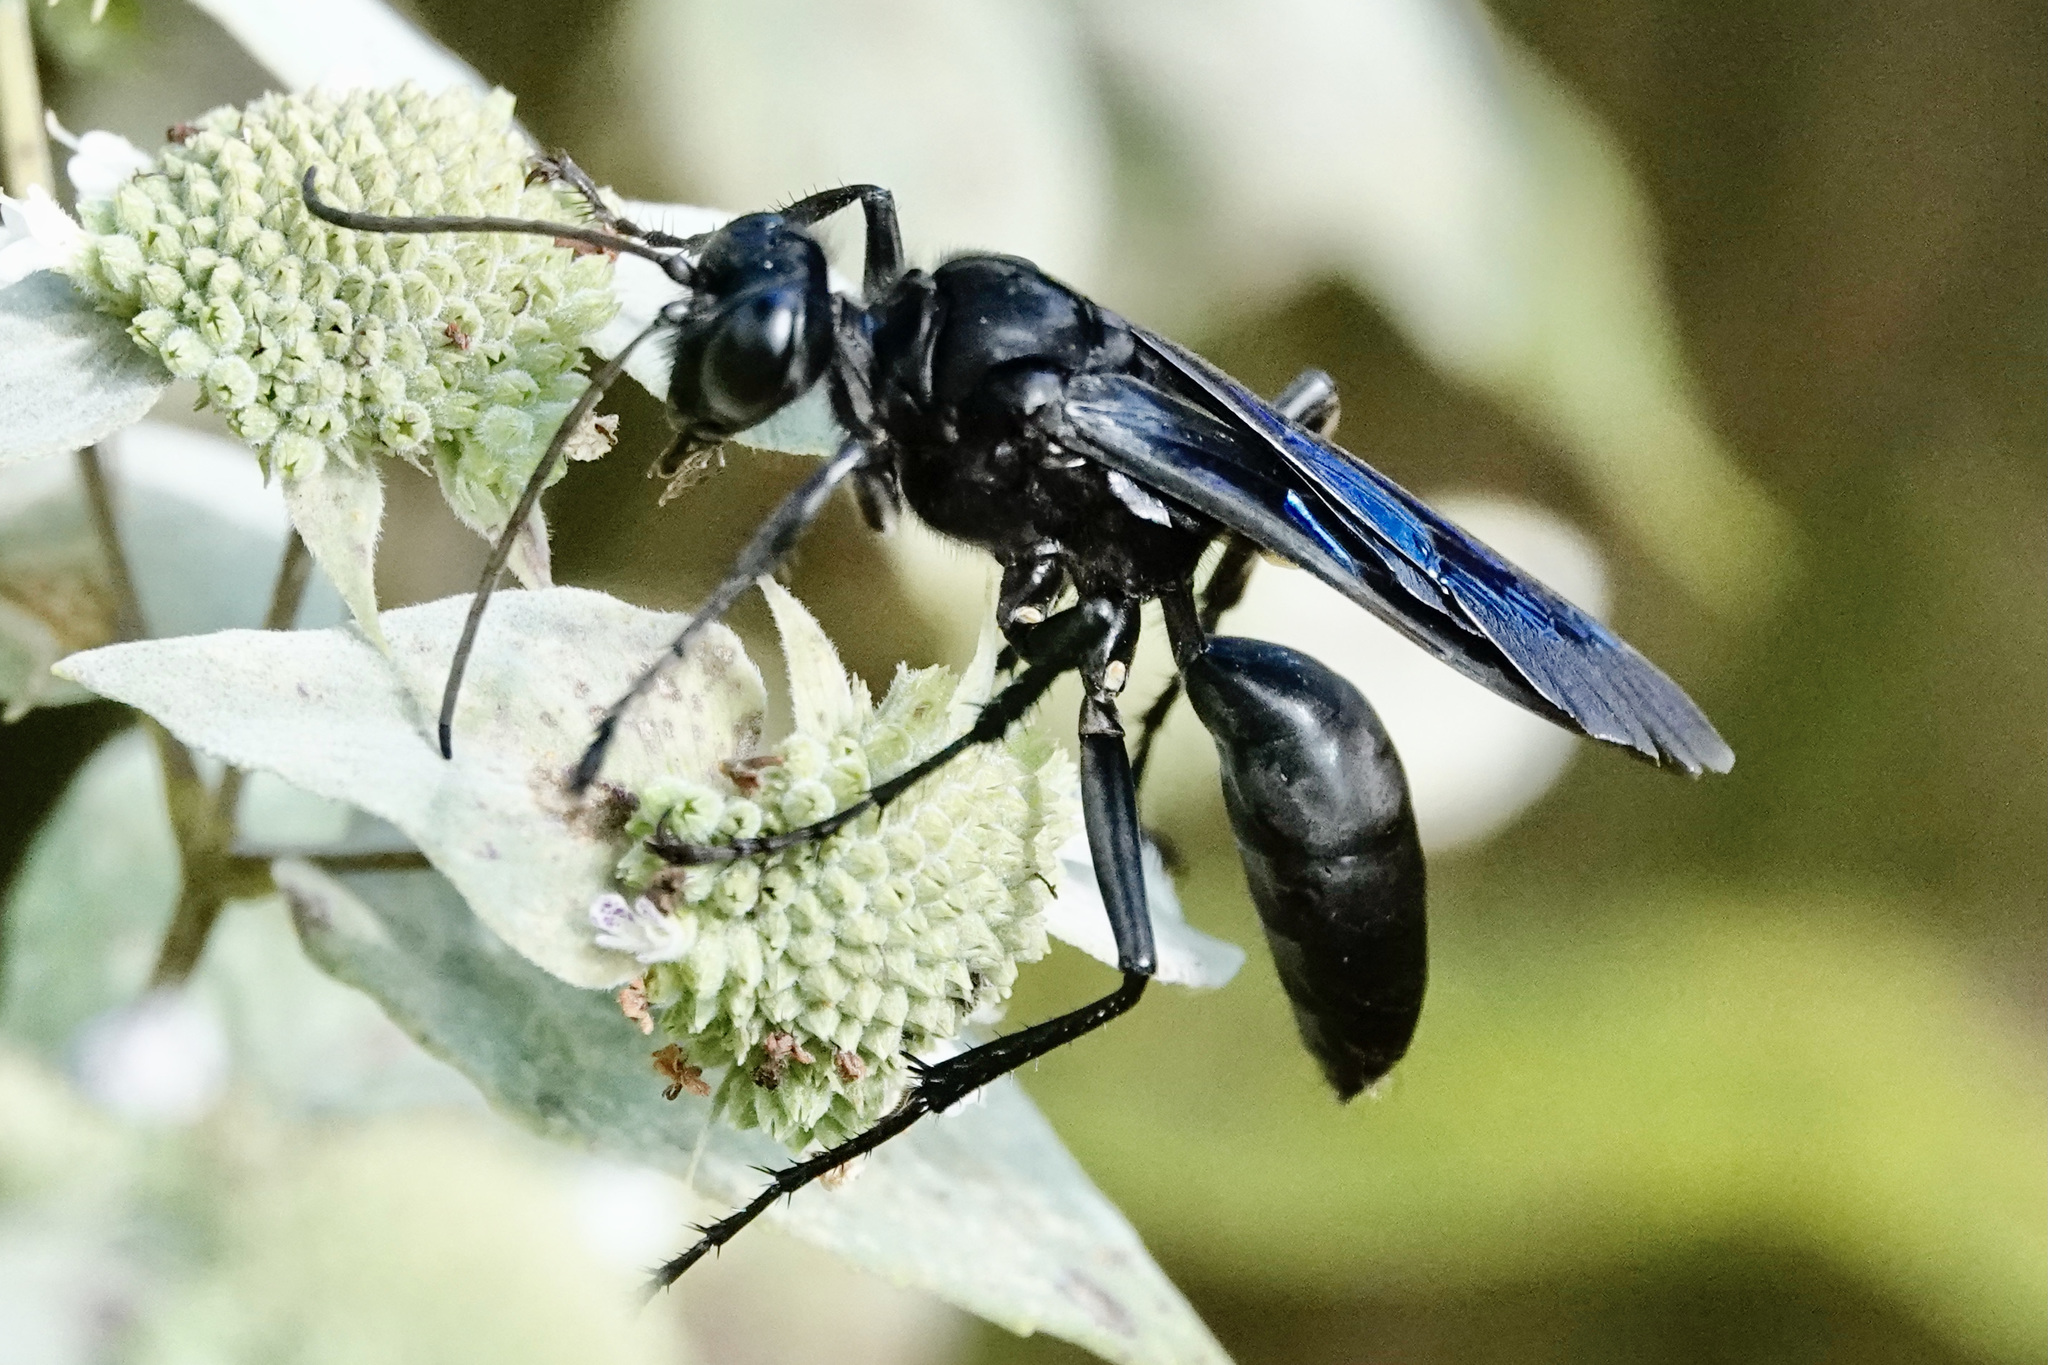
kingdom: Animalia
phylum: Arthropoda
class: Insecta
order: Hymenoptera
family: Sphecidae
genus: Sphex
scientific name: Sphex pensylvanicus
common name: Great black digger wasp
